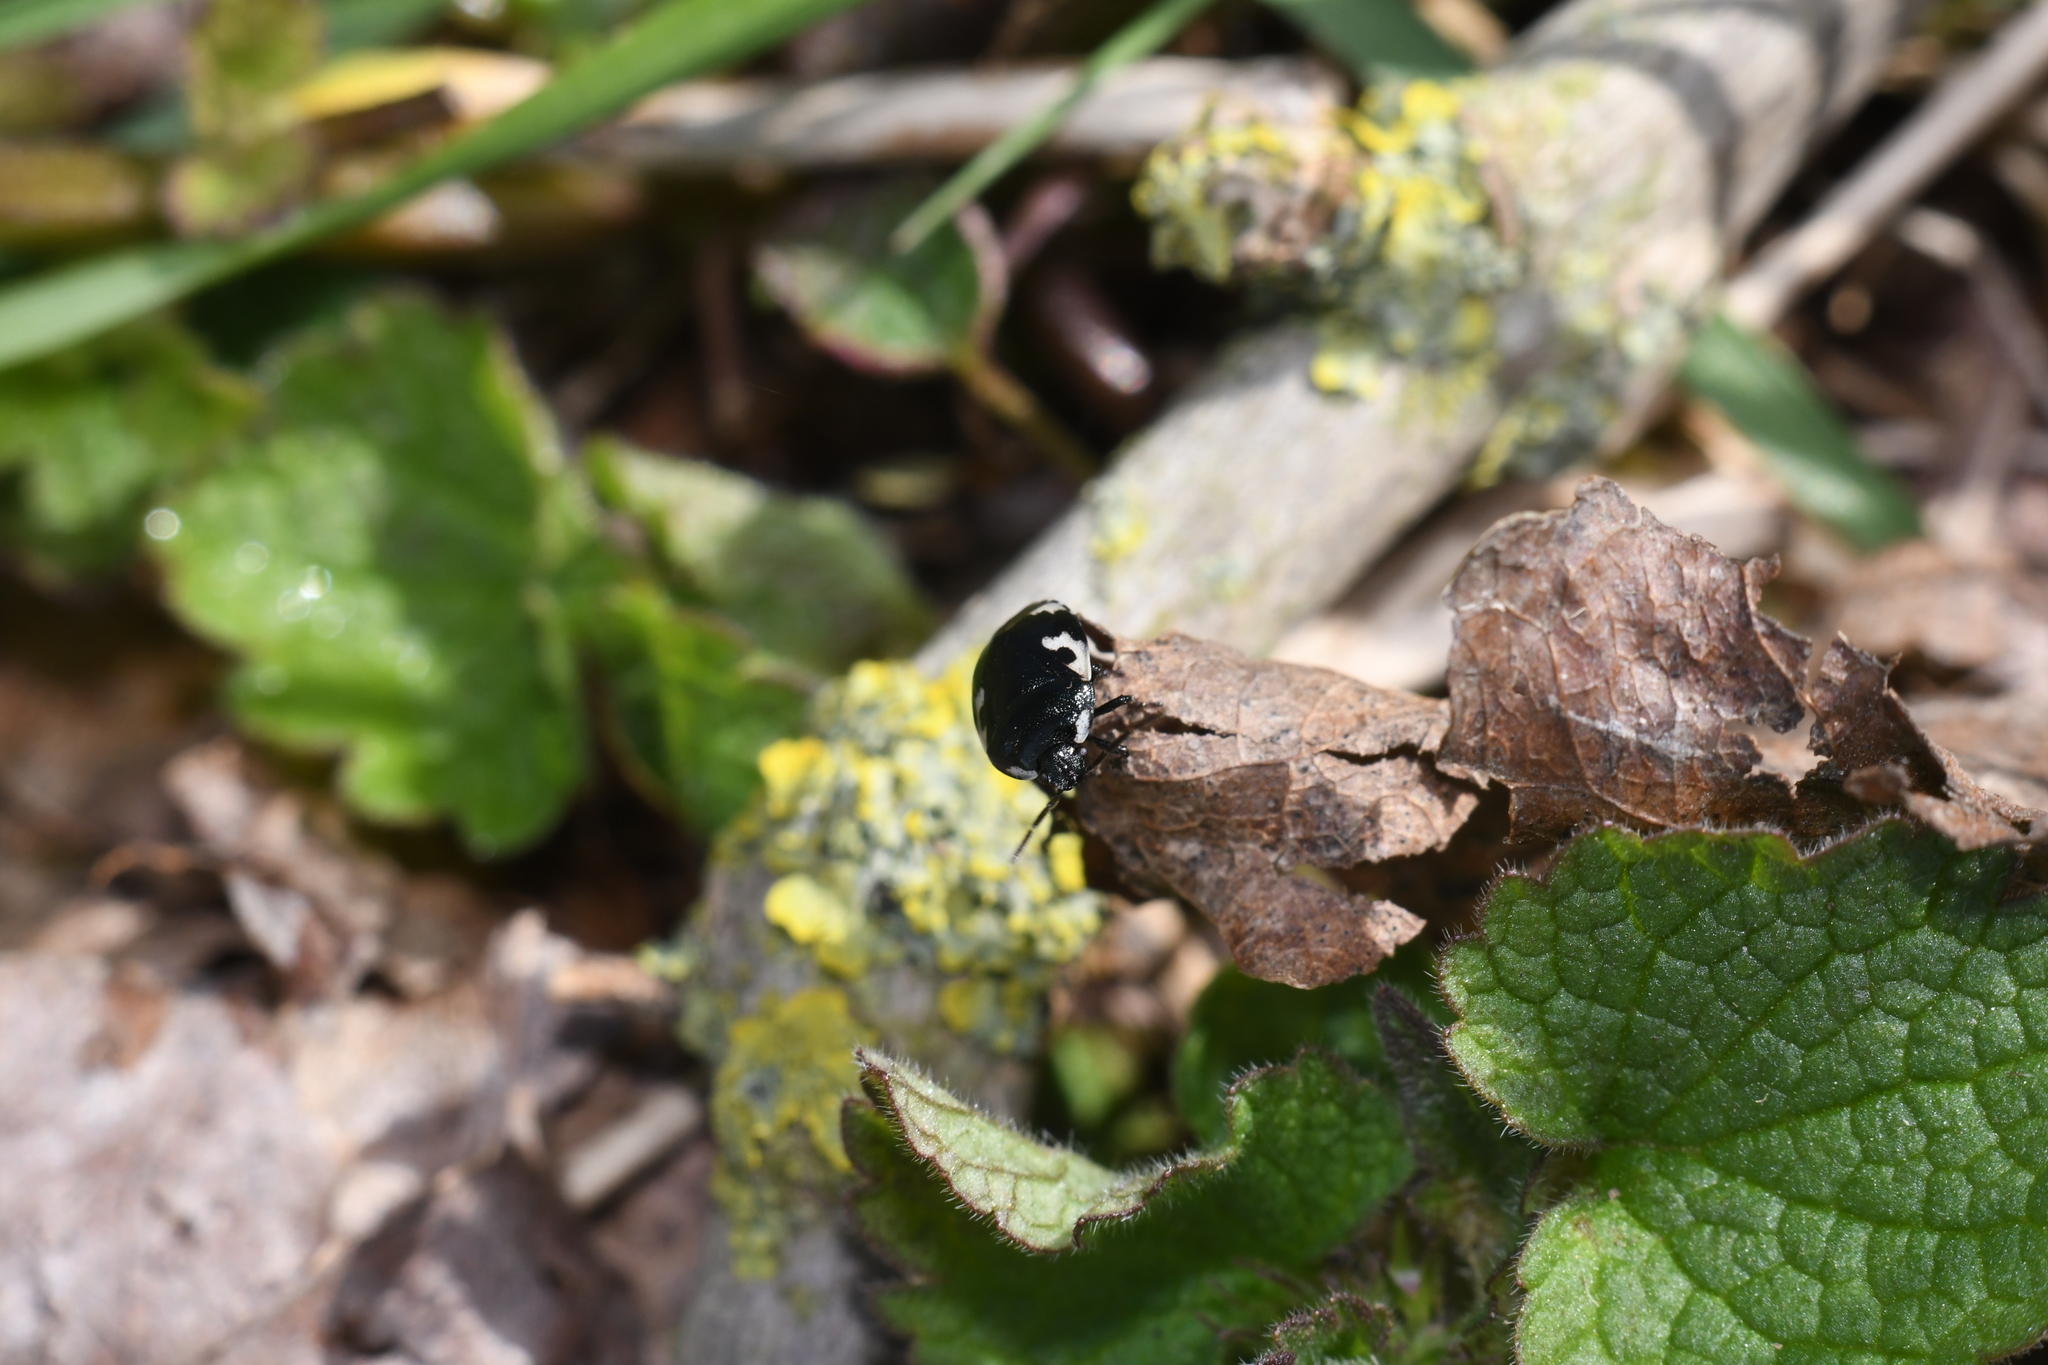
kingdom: Animalia
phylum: Arthropoda
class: Insecta
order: Hemiptera
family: Cydnidae
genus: Tritomegas
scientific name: Tritomegas bicolor
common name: Pied shieldbug
